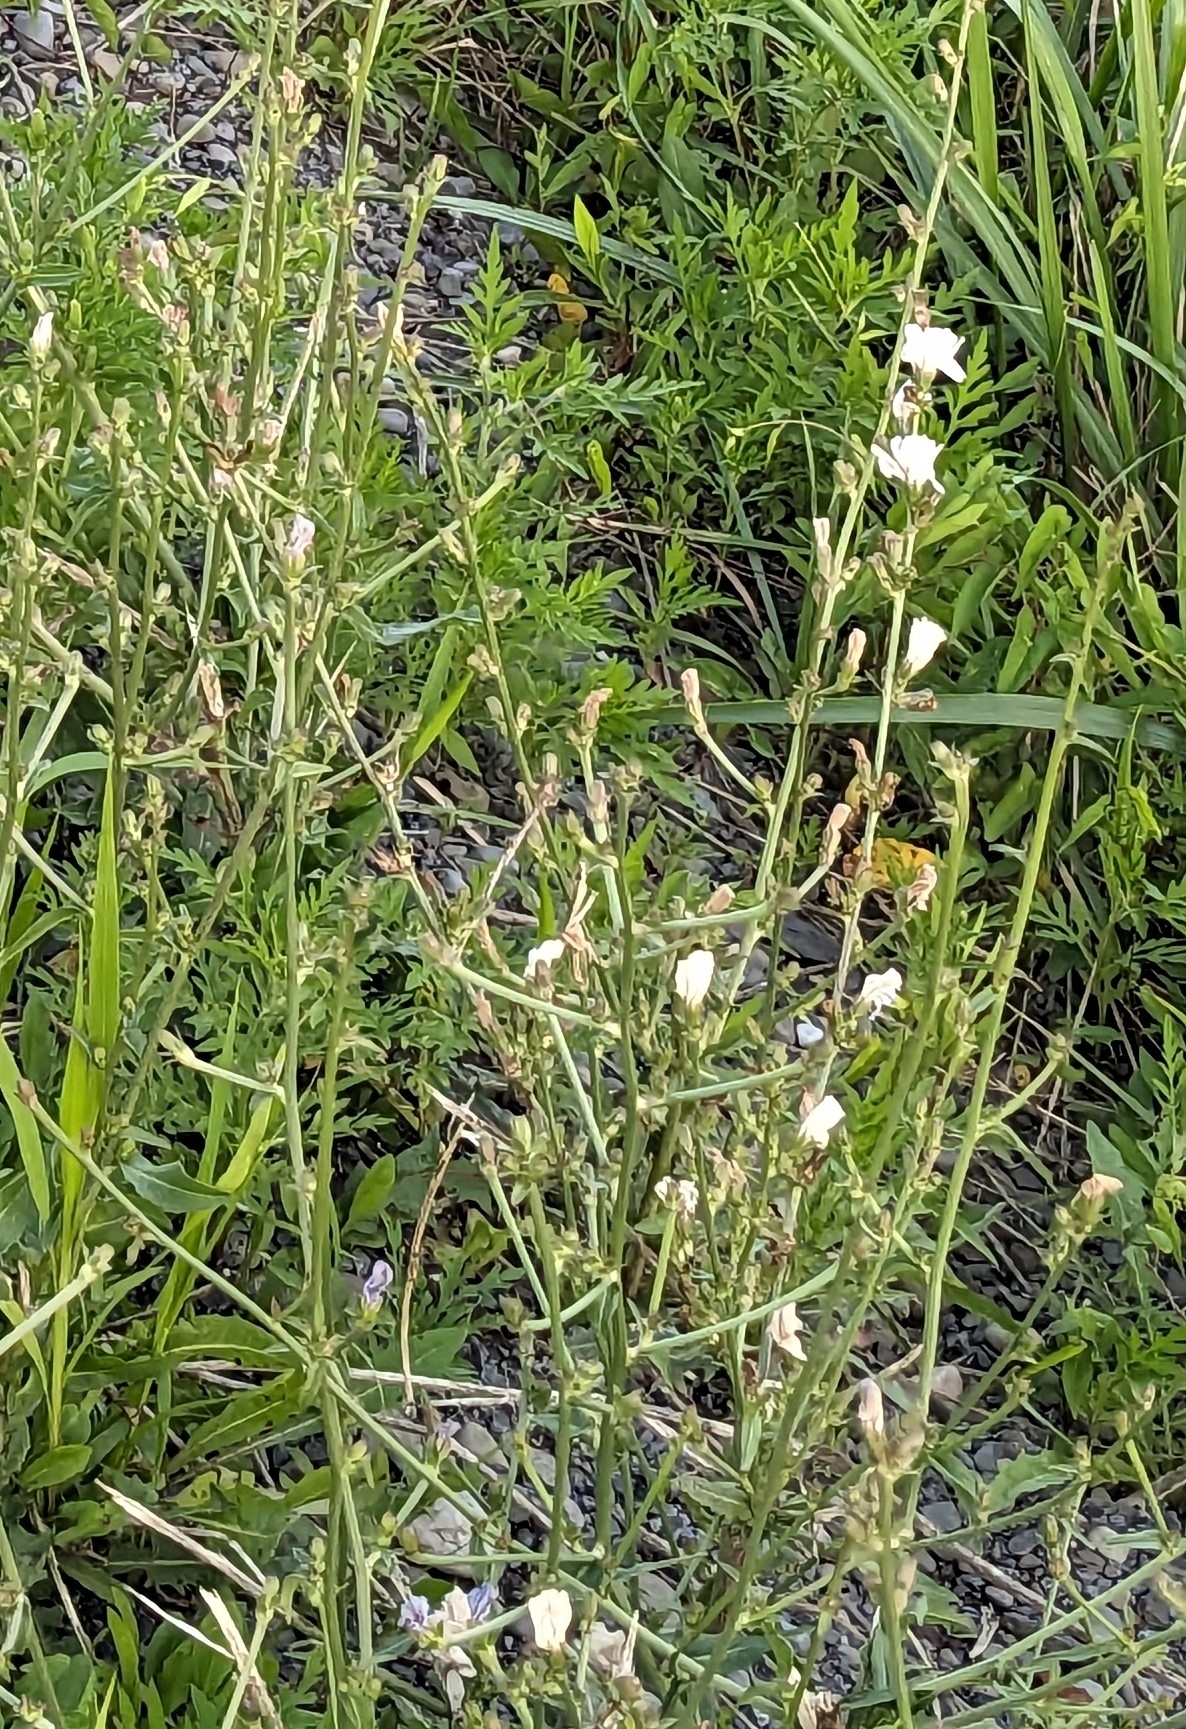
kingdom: Plantae
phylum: Tracheophyta
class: Magnoliopsida
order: Asterales
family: Asteraceae
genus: Cichorium
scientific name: Cichorium intybus
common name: Chicory
